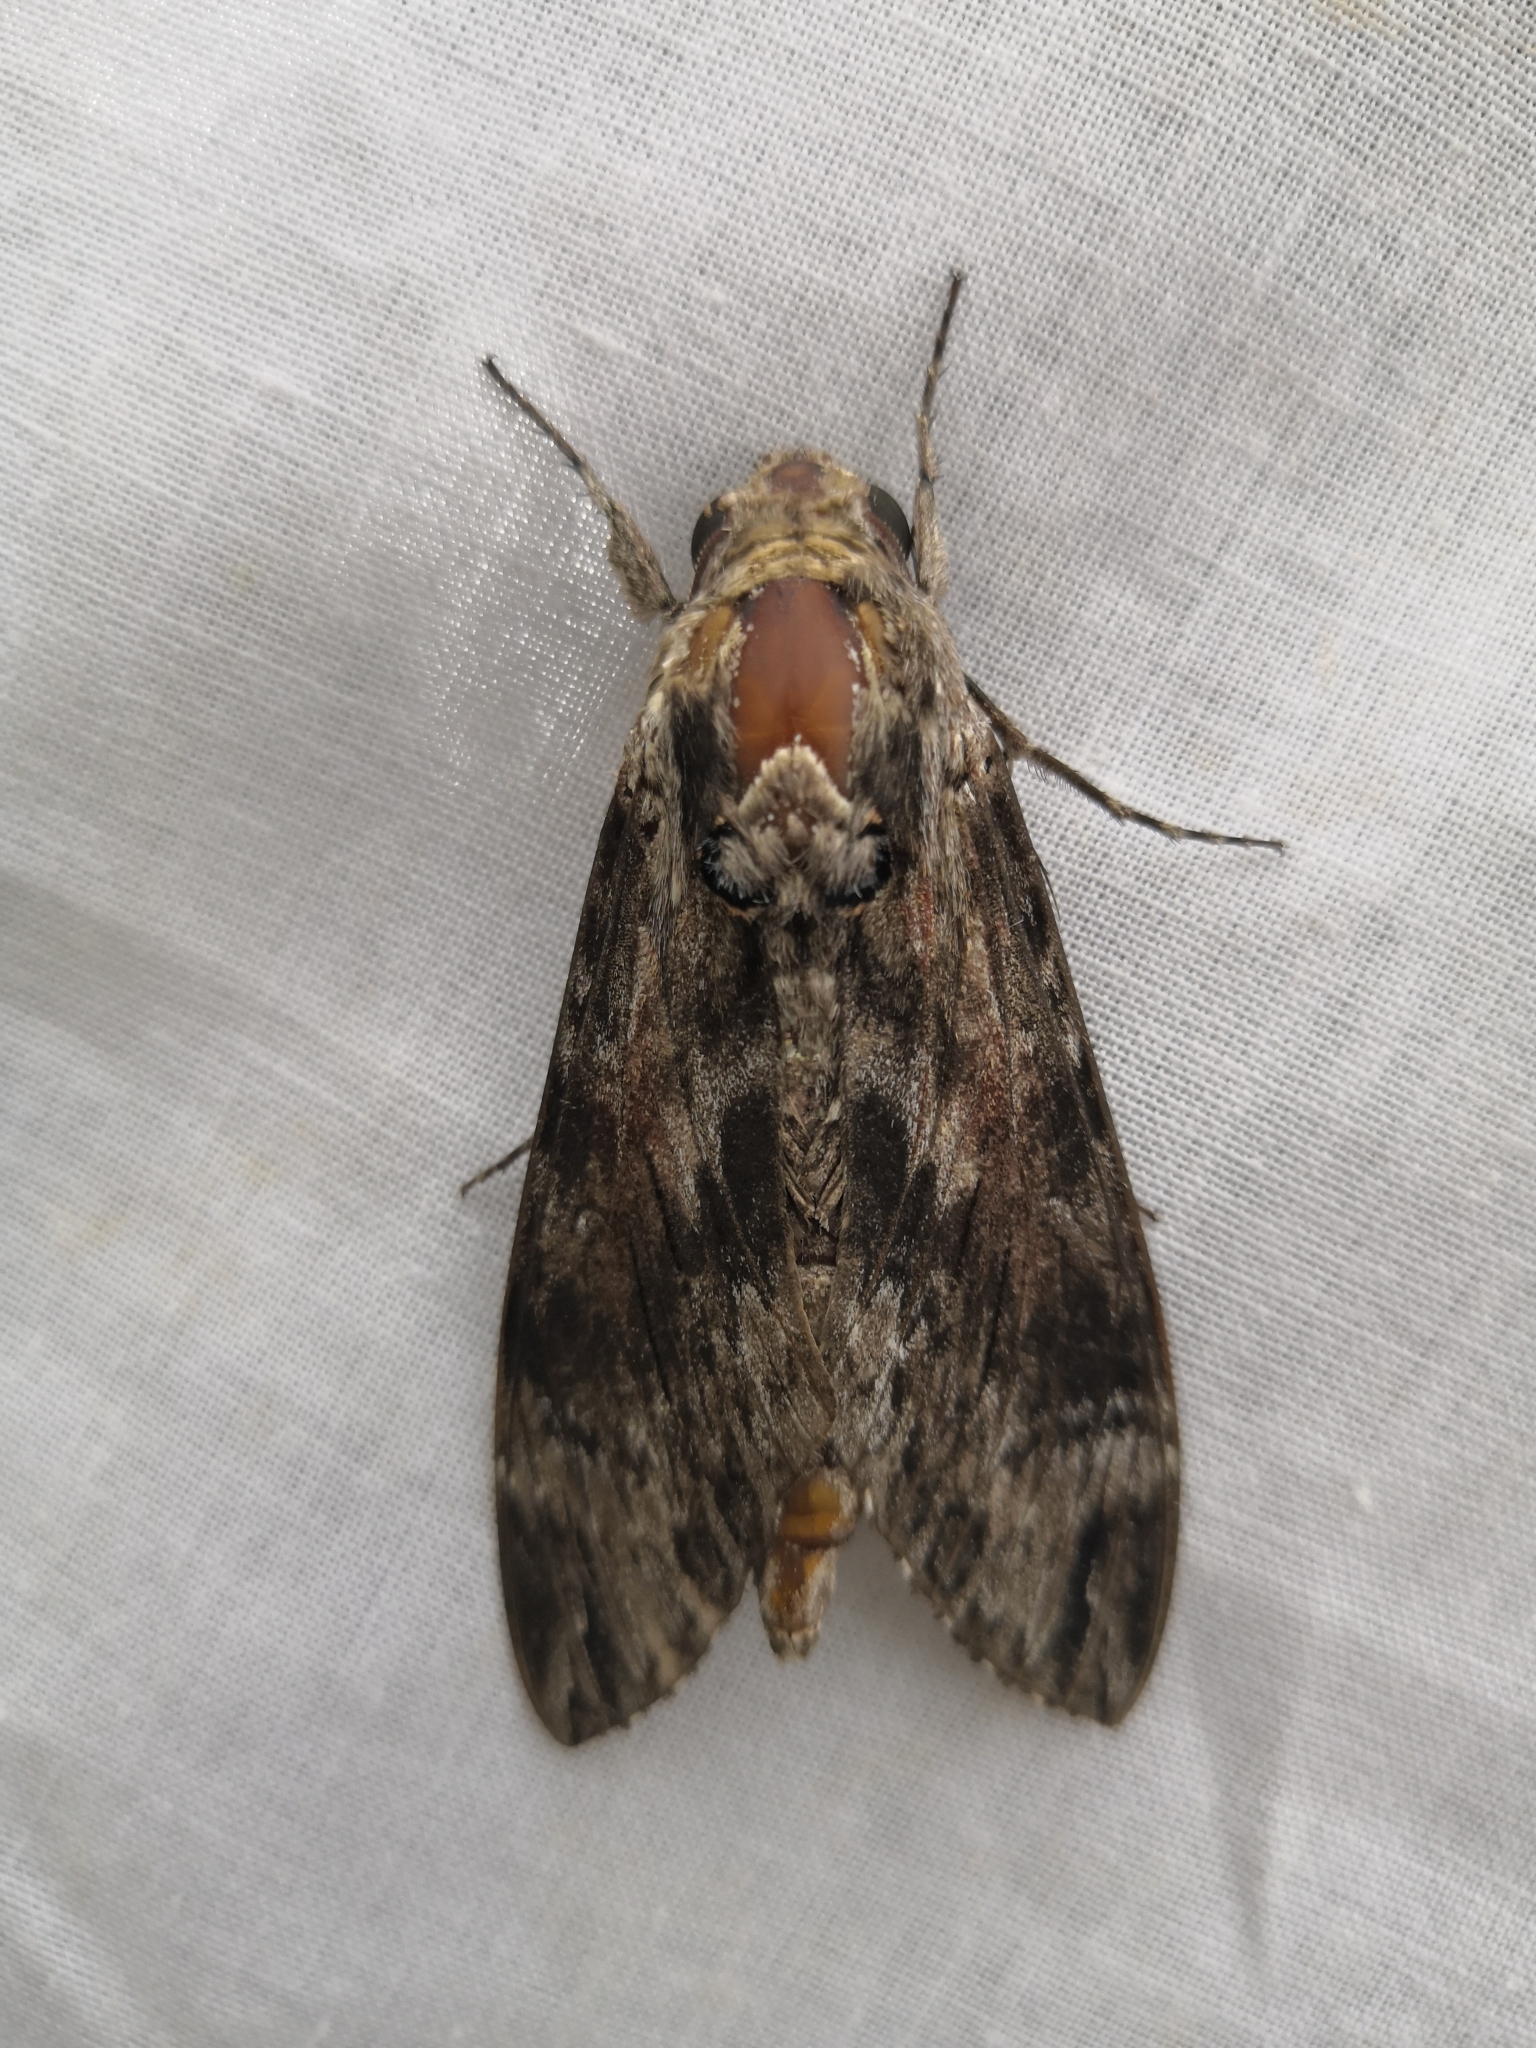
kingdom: Animalia
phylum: Arthropoda
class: Insecta
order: Lepidoptera
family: Sphingidae
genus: Agrius
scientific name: Agrius convolvuli
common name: Convolvulus hawkmoth
